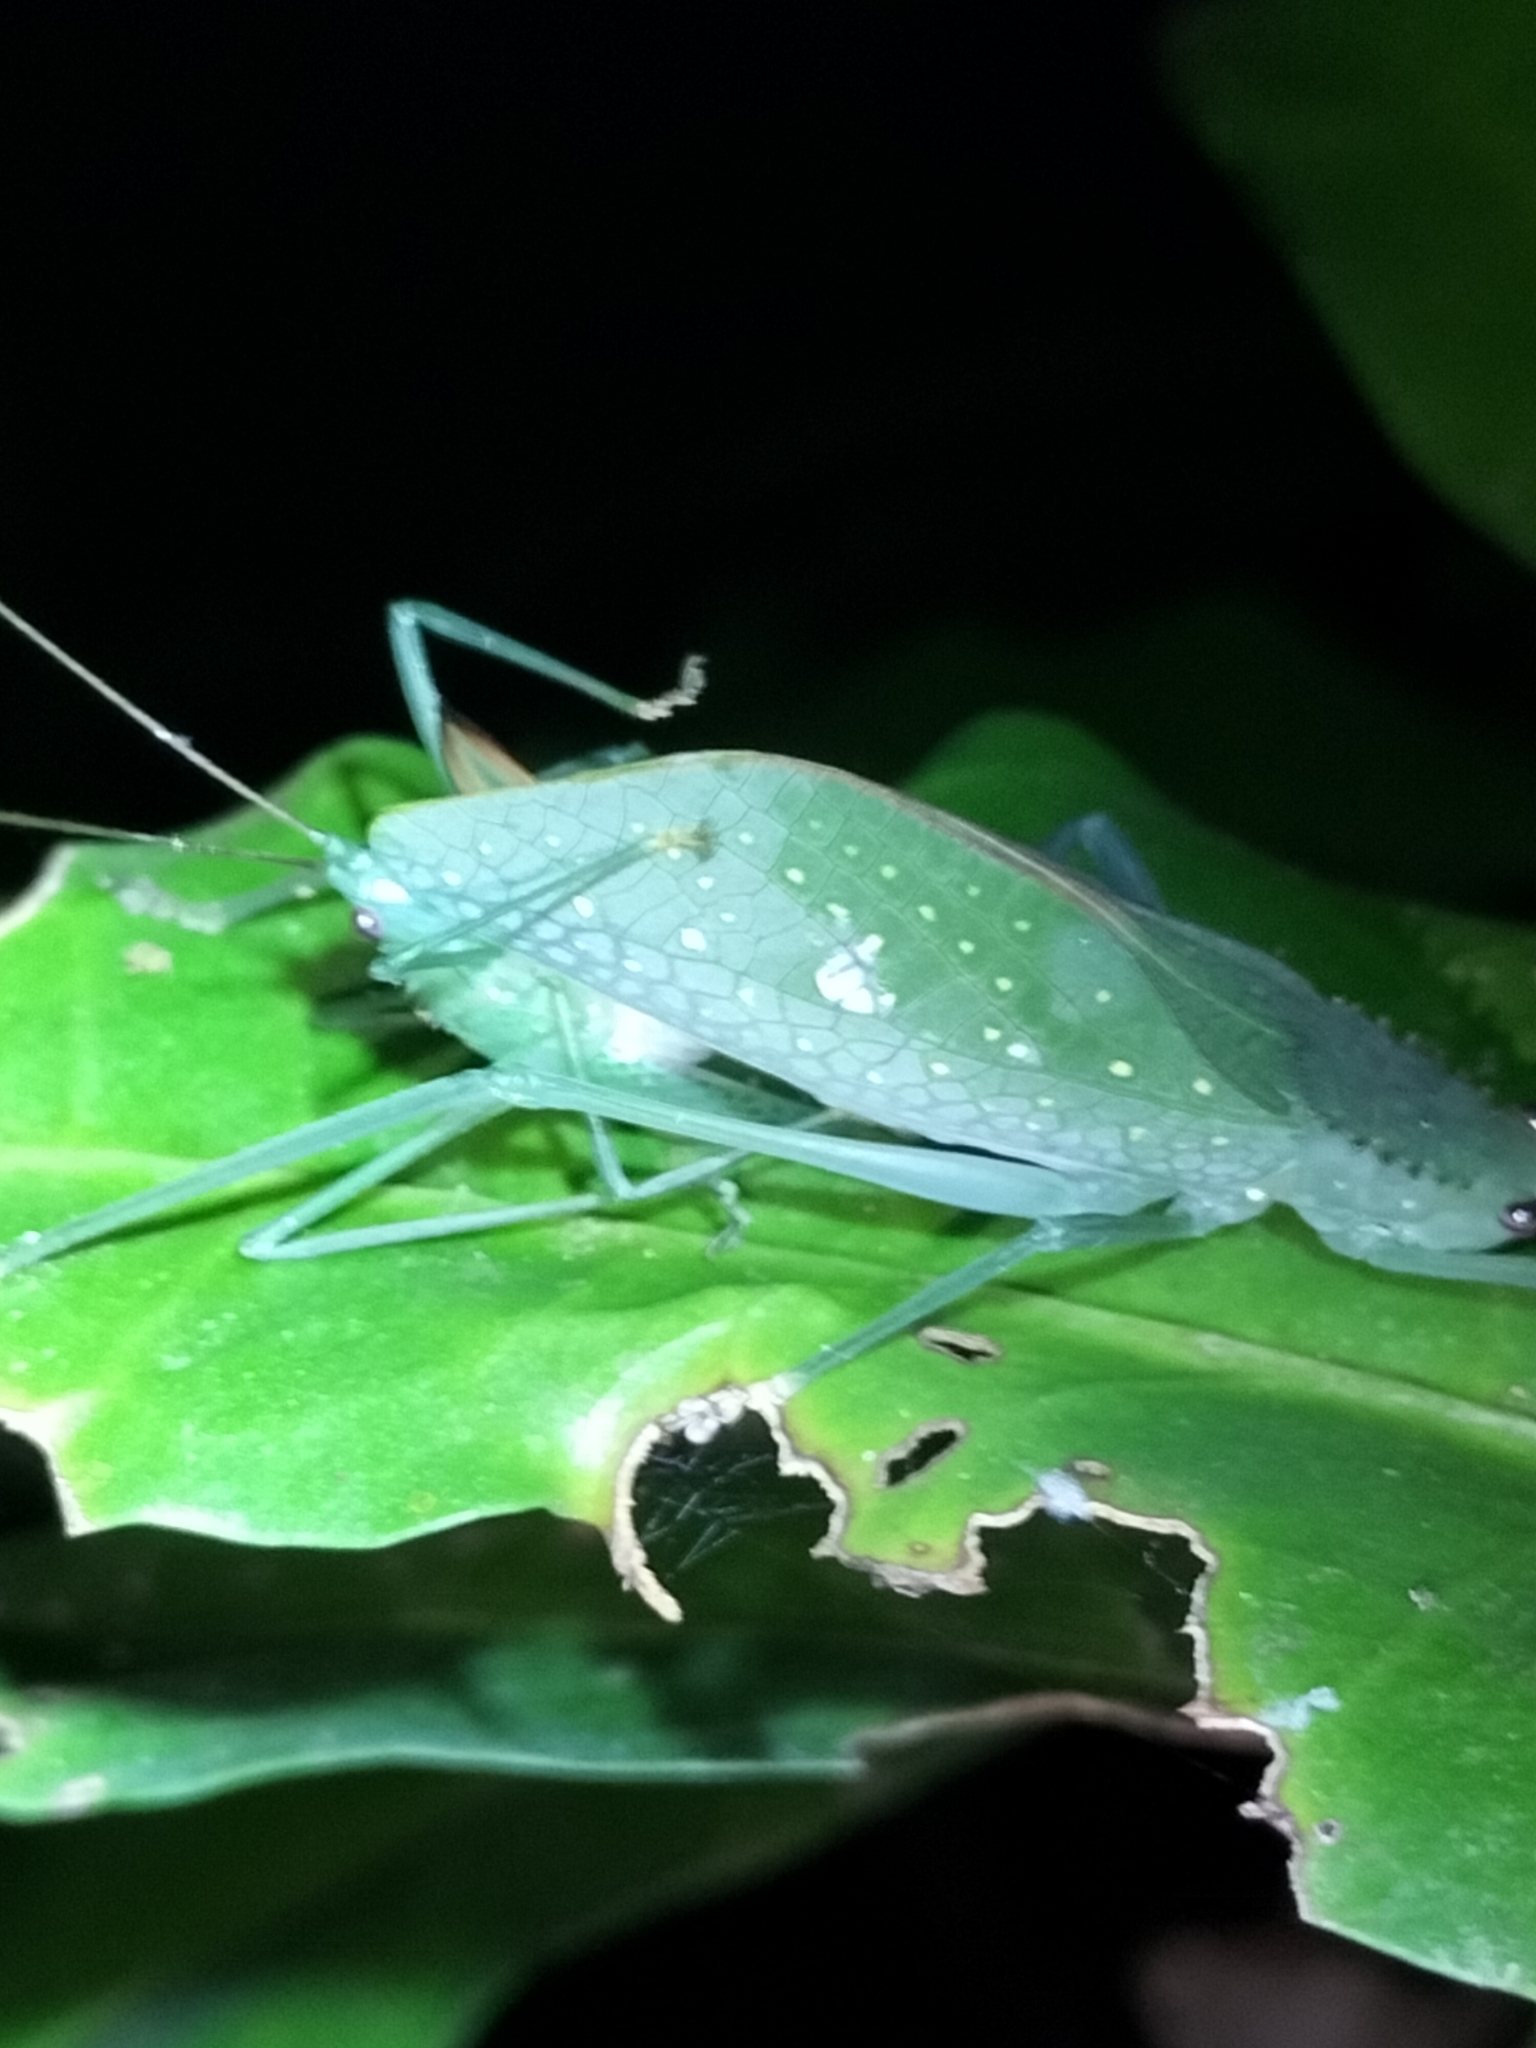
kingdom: Animalia
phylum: Arthropoda
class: Insecta
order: Orthoptera
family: Tettigoniidae
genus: Chloracantha
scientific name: Chloracantha angularis
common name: Angular-winged snub-nosed katydid
